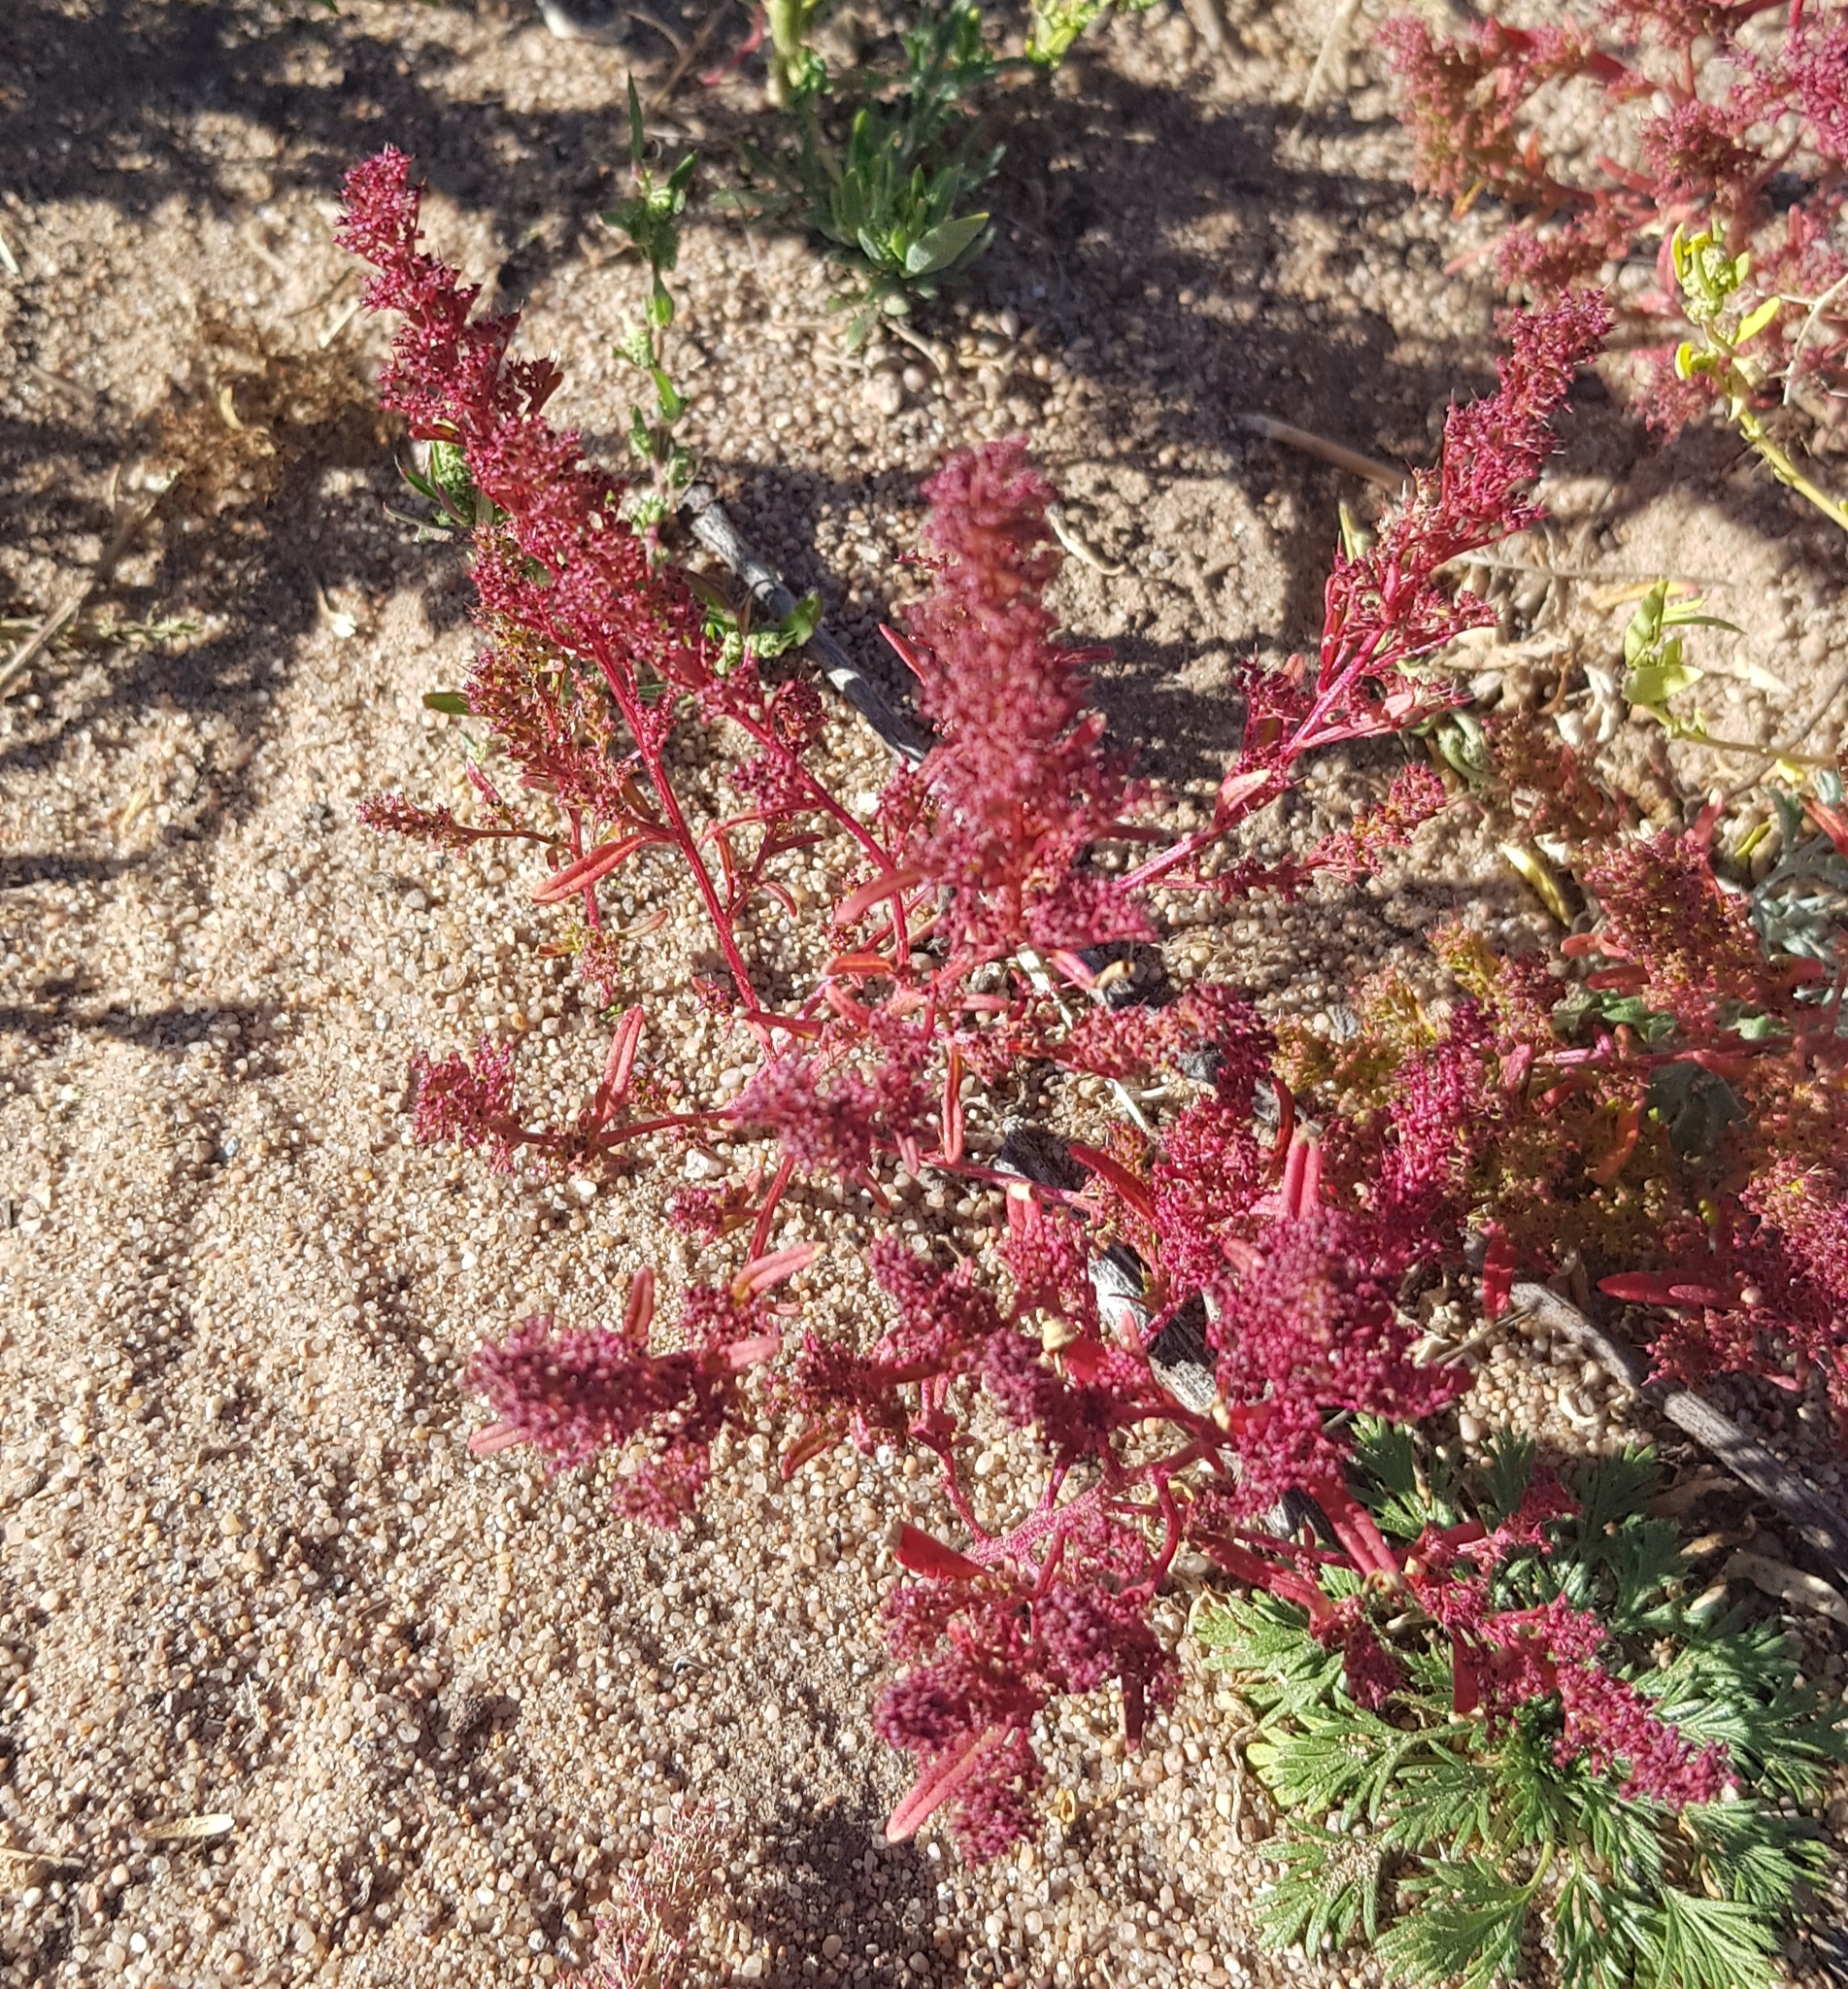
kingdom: Plantae
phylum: Tracheophyta
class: Magnoliopsida
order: Caryophyllales
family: Amaranthaceae
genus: Teloxys
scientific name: Teloxys aristata
